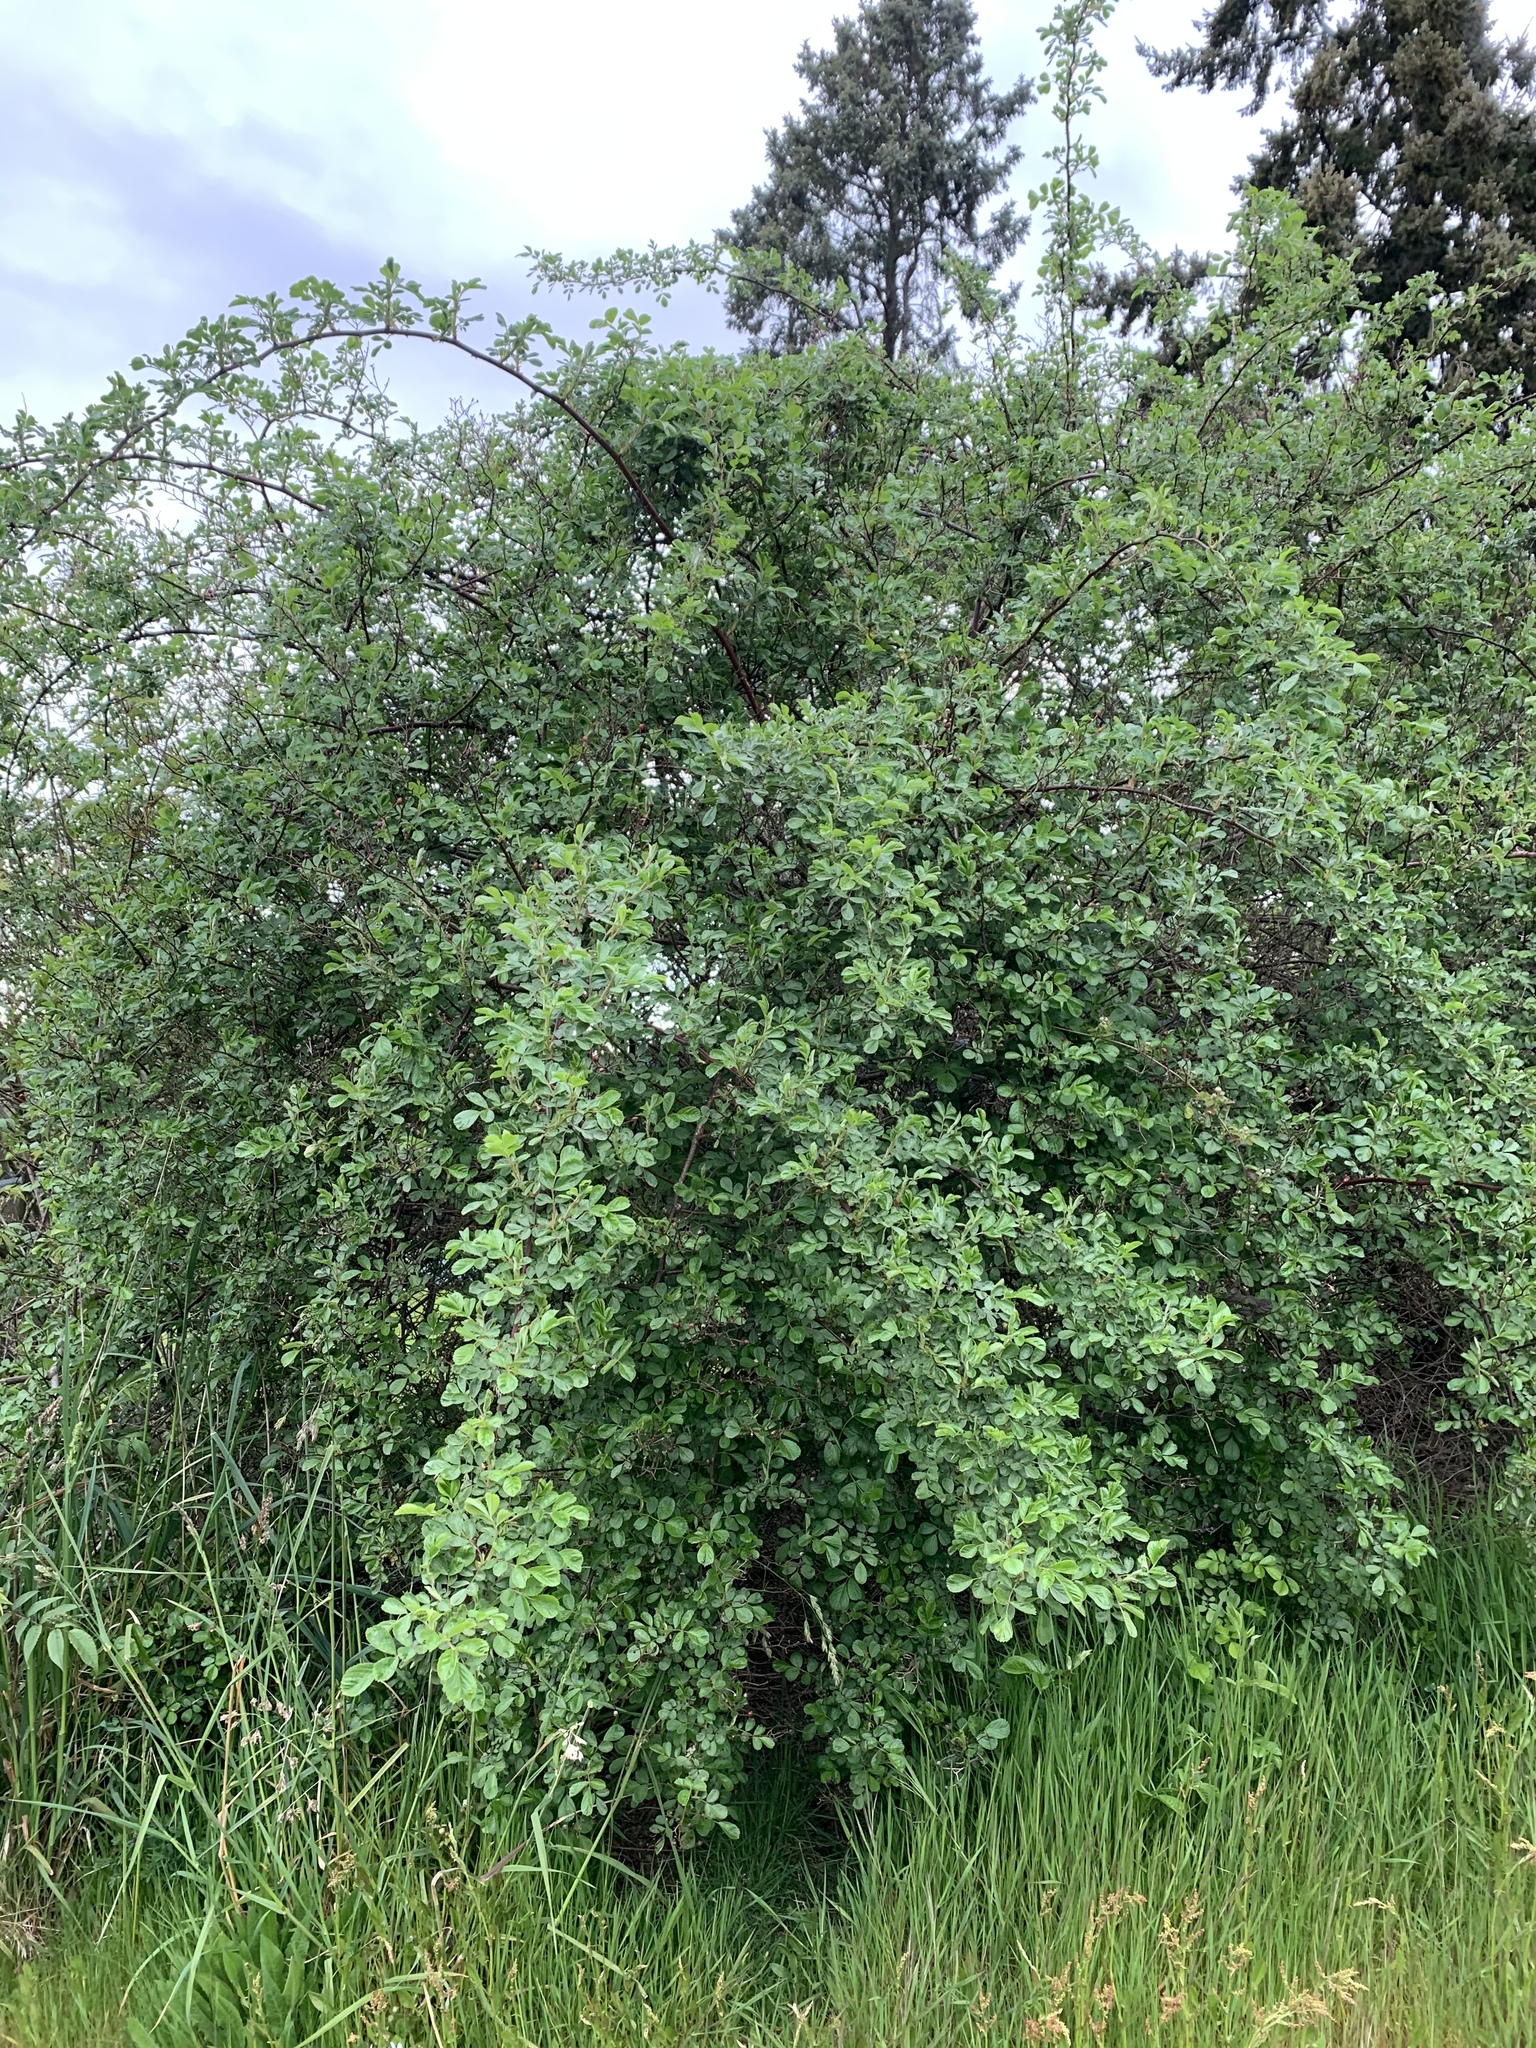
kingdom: Plantae
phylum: Tracheophyta
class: Magnoliopsida
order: Rosales
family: Rosaceae
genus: Rosa
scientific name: Rosa multiflora
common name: Multiflora rose
